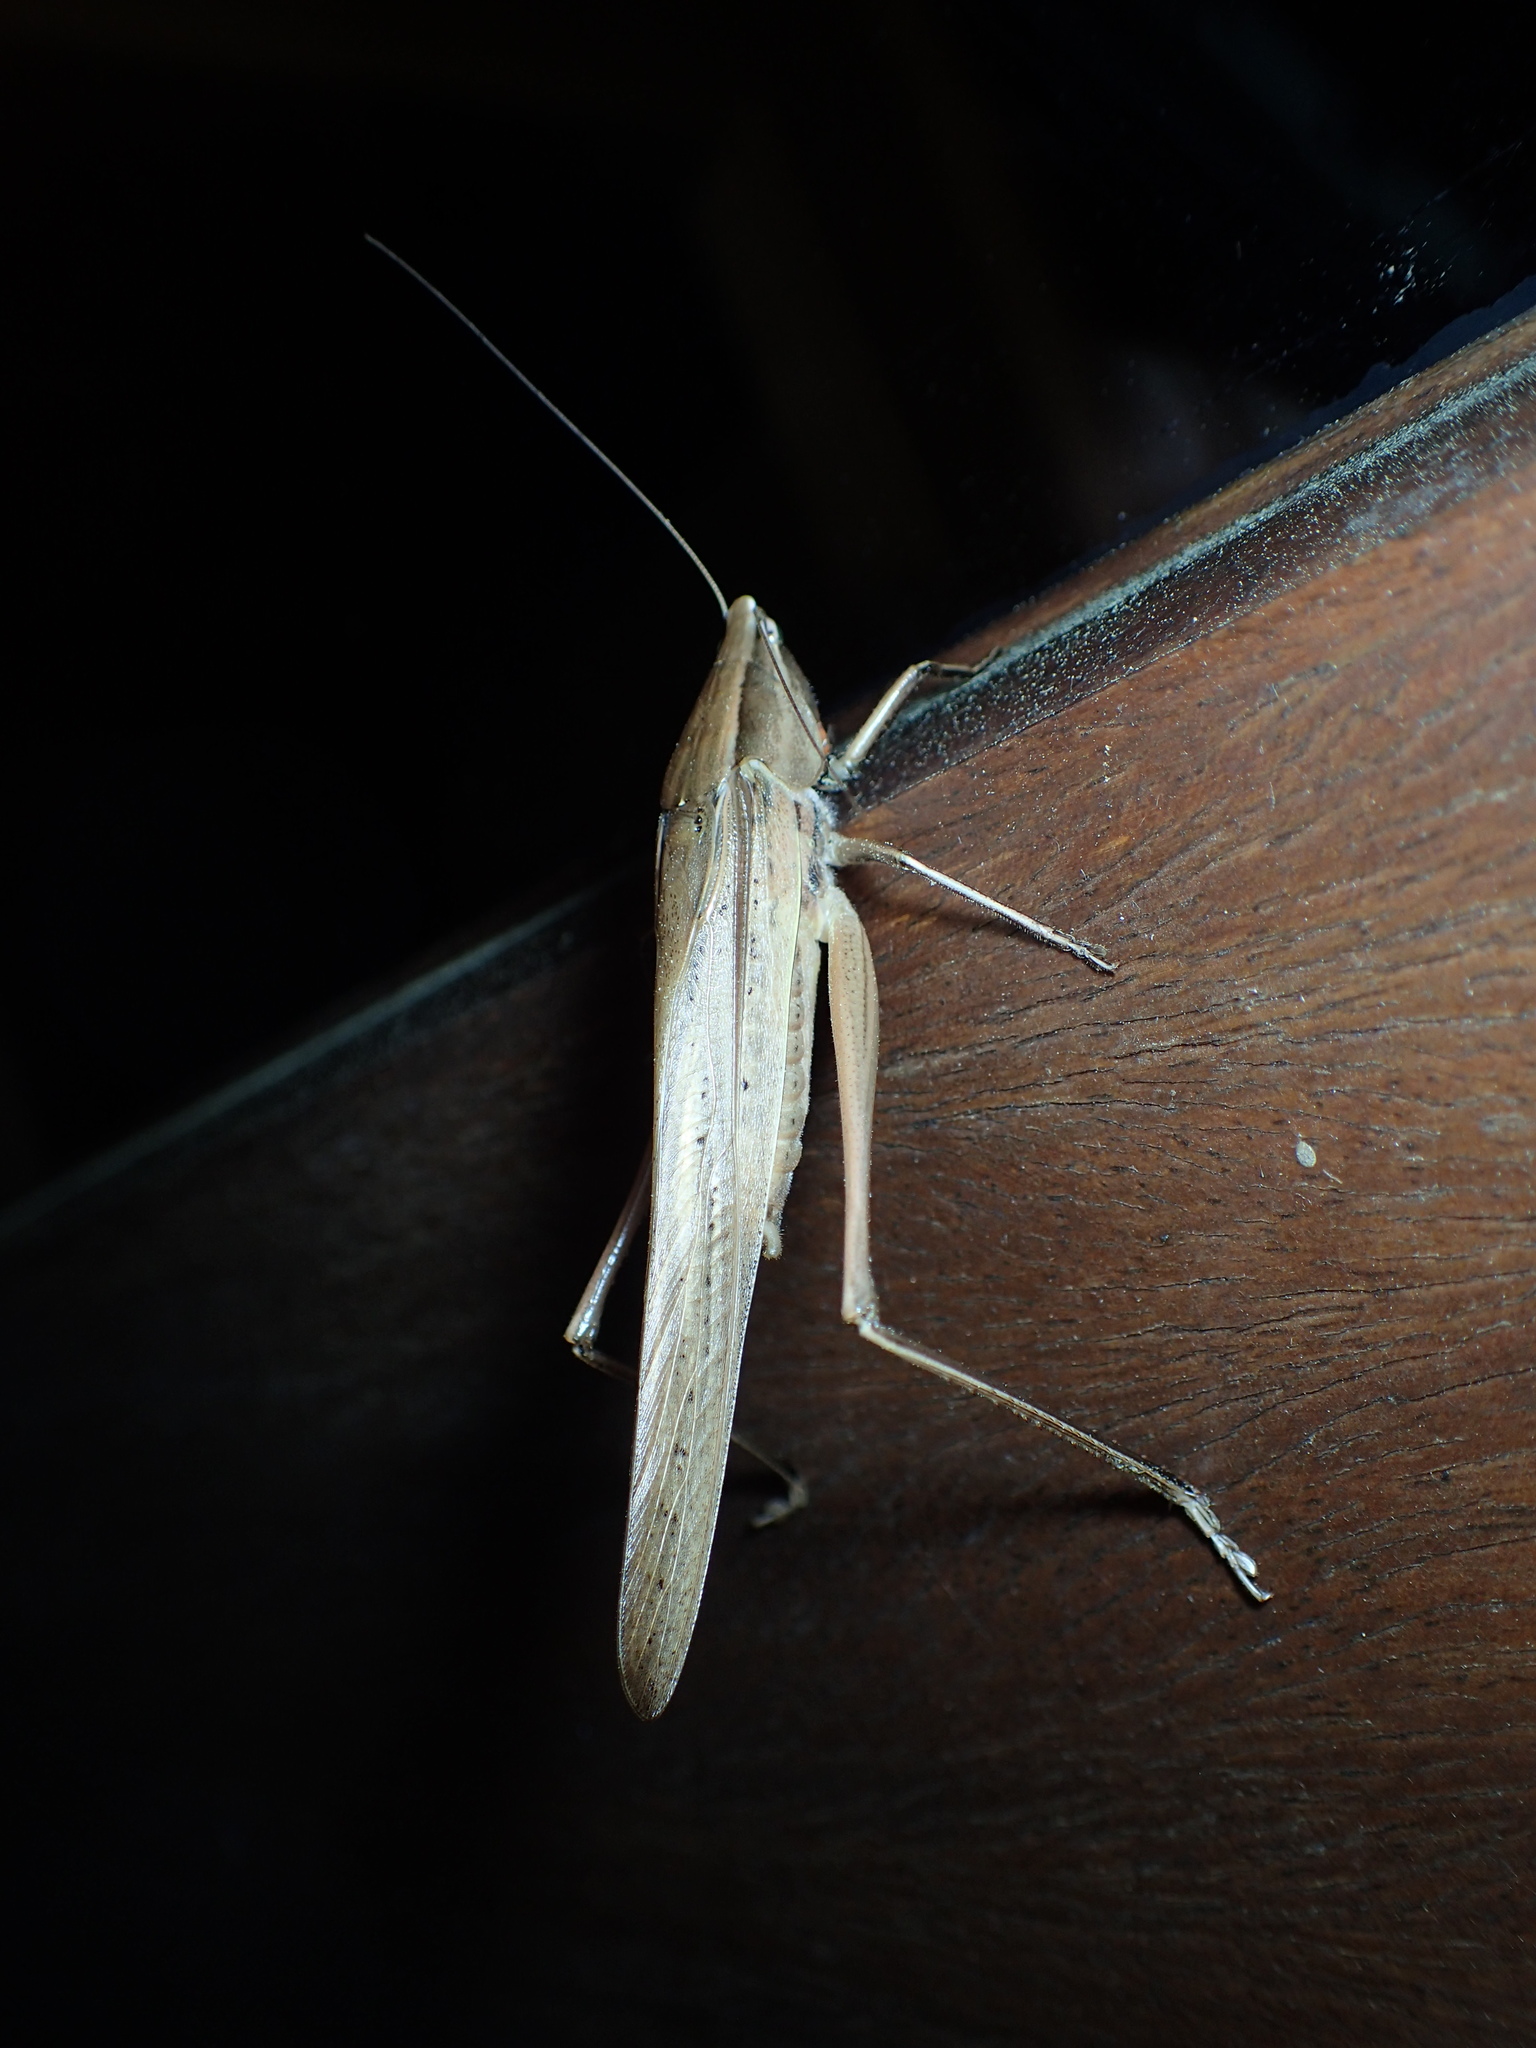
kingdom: Animalia
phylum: Arthropoda
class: Insecta
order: Orthoptera
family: Tettigoniidae
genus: Neoconocephalus
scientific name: Neoconocephalus triops
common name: Broad-tipped conehead
